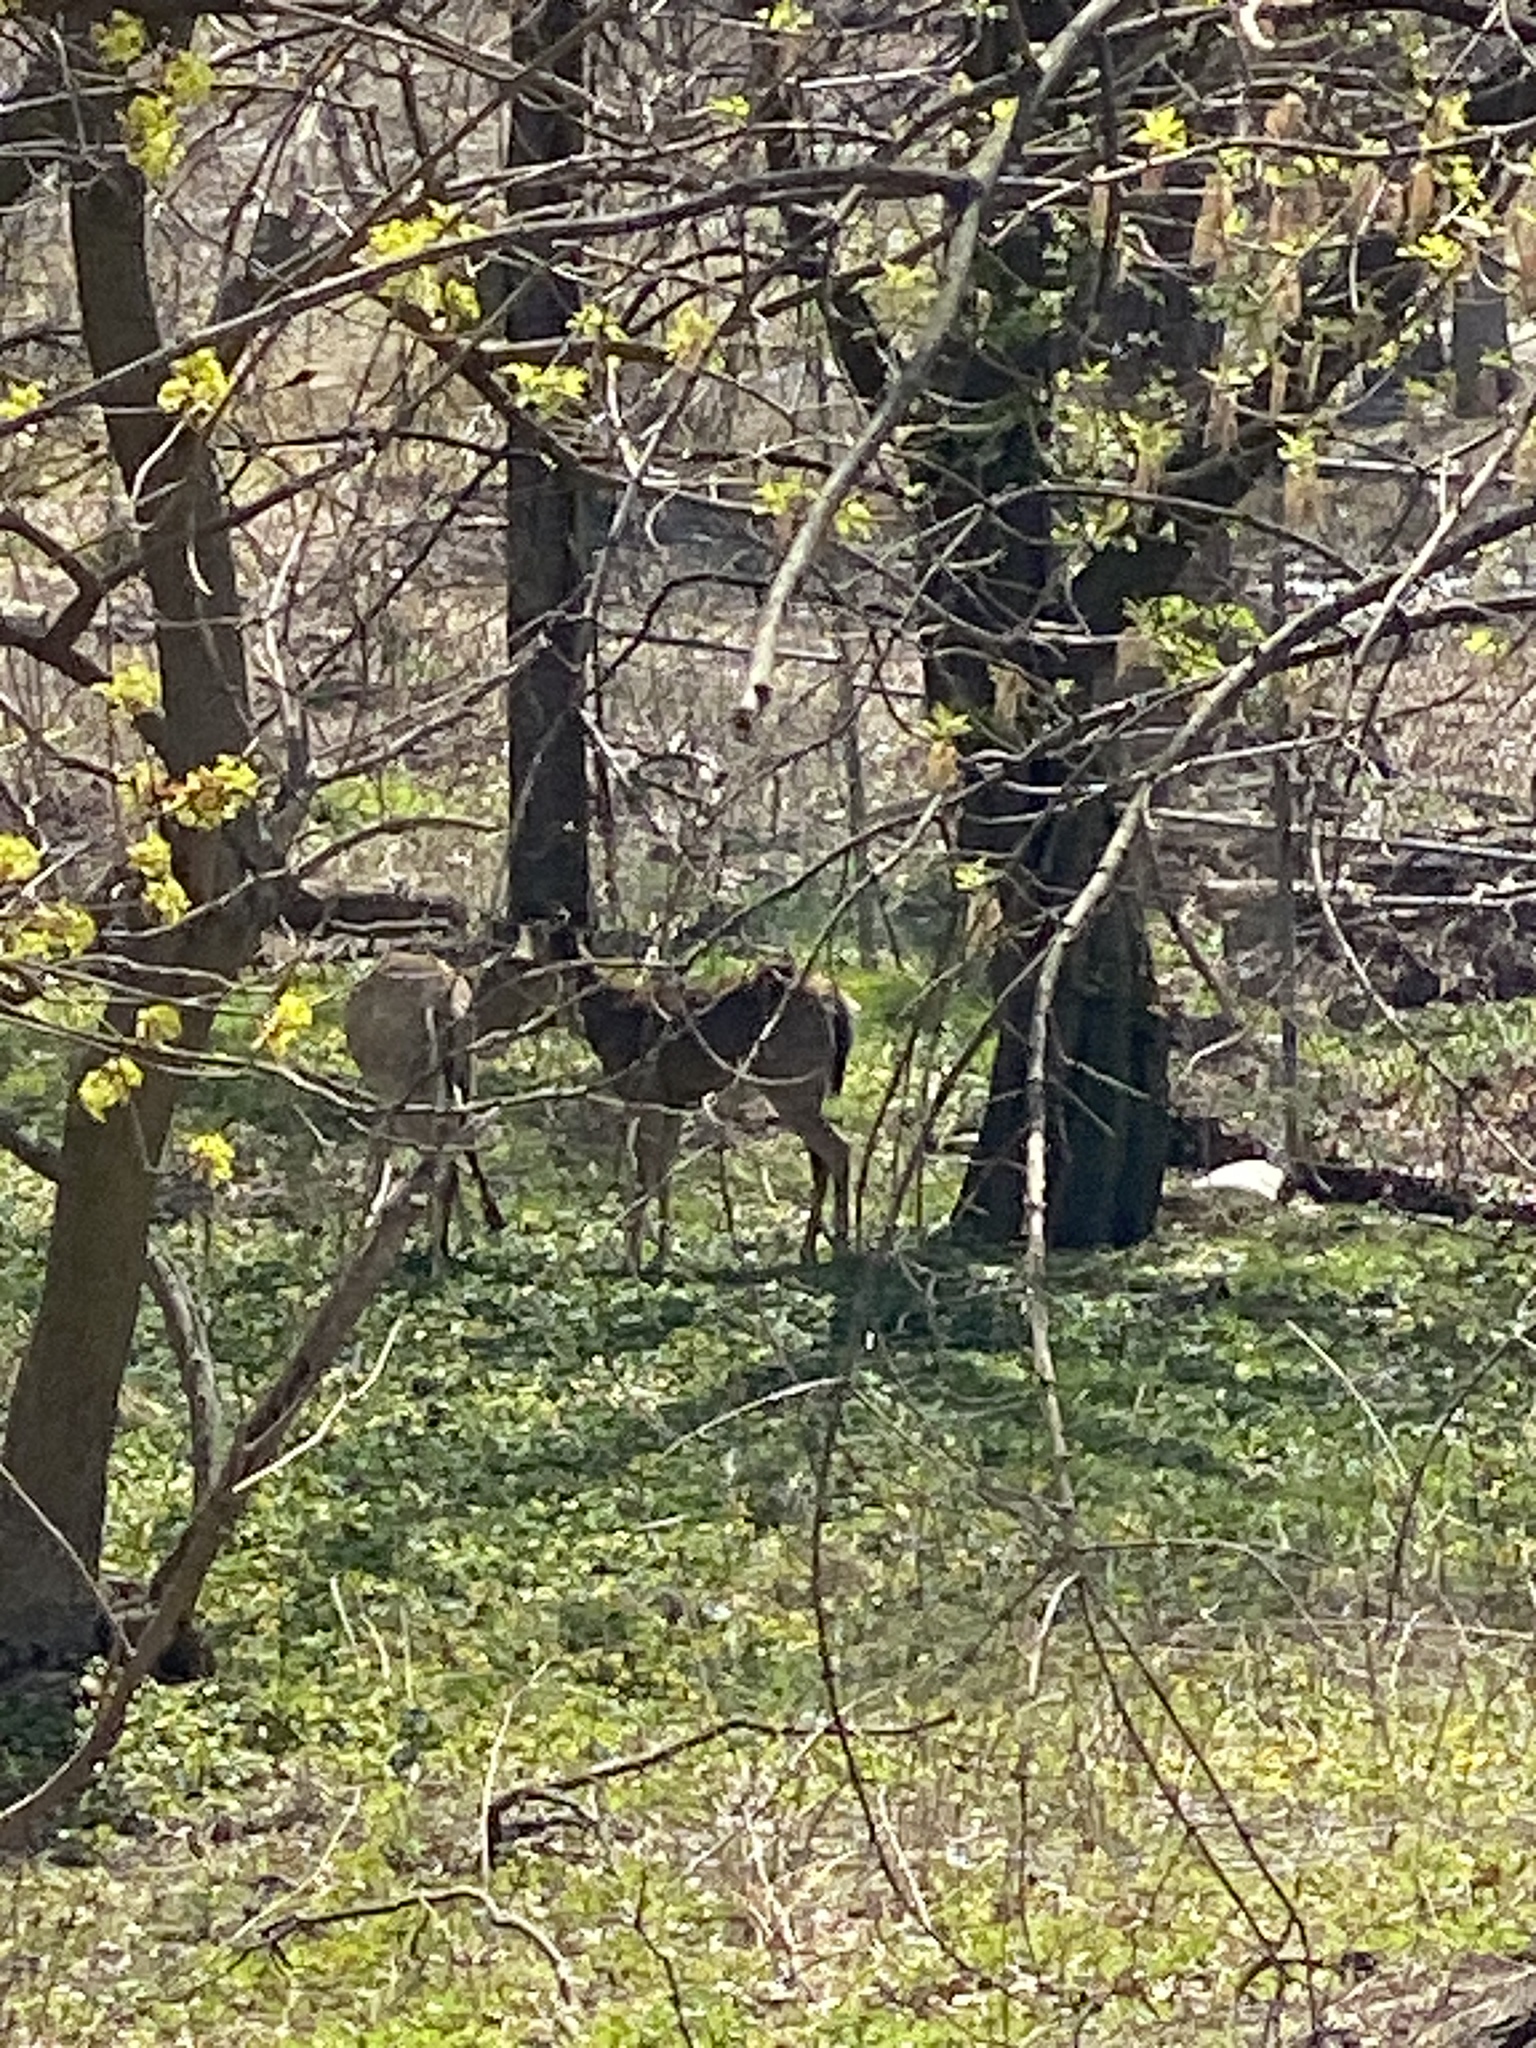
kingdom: Animalia
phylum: Chordata
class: Mammalia
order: Artiodactyla
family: Cervidae
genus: Odocoileus
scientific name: Odocoileus virginianus
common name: White-tailed deer
